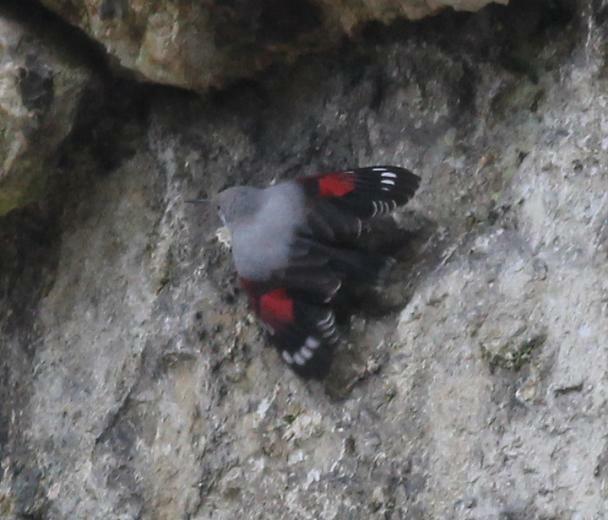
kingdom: Animalia
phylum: Chordata
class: Aves
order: Passeriformes
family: Tichodromidae
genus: Tichodroma
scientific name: Tichodroma muraria
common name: Wallcreeper
